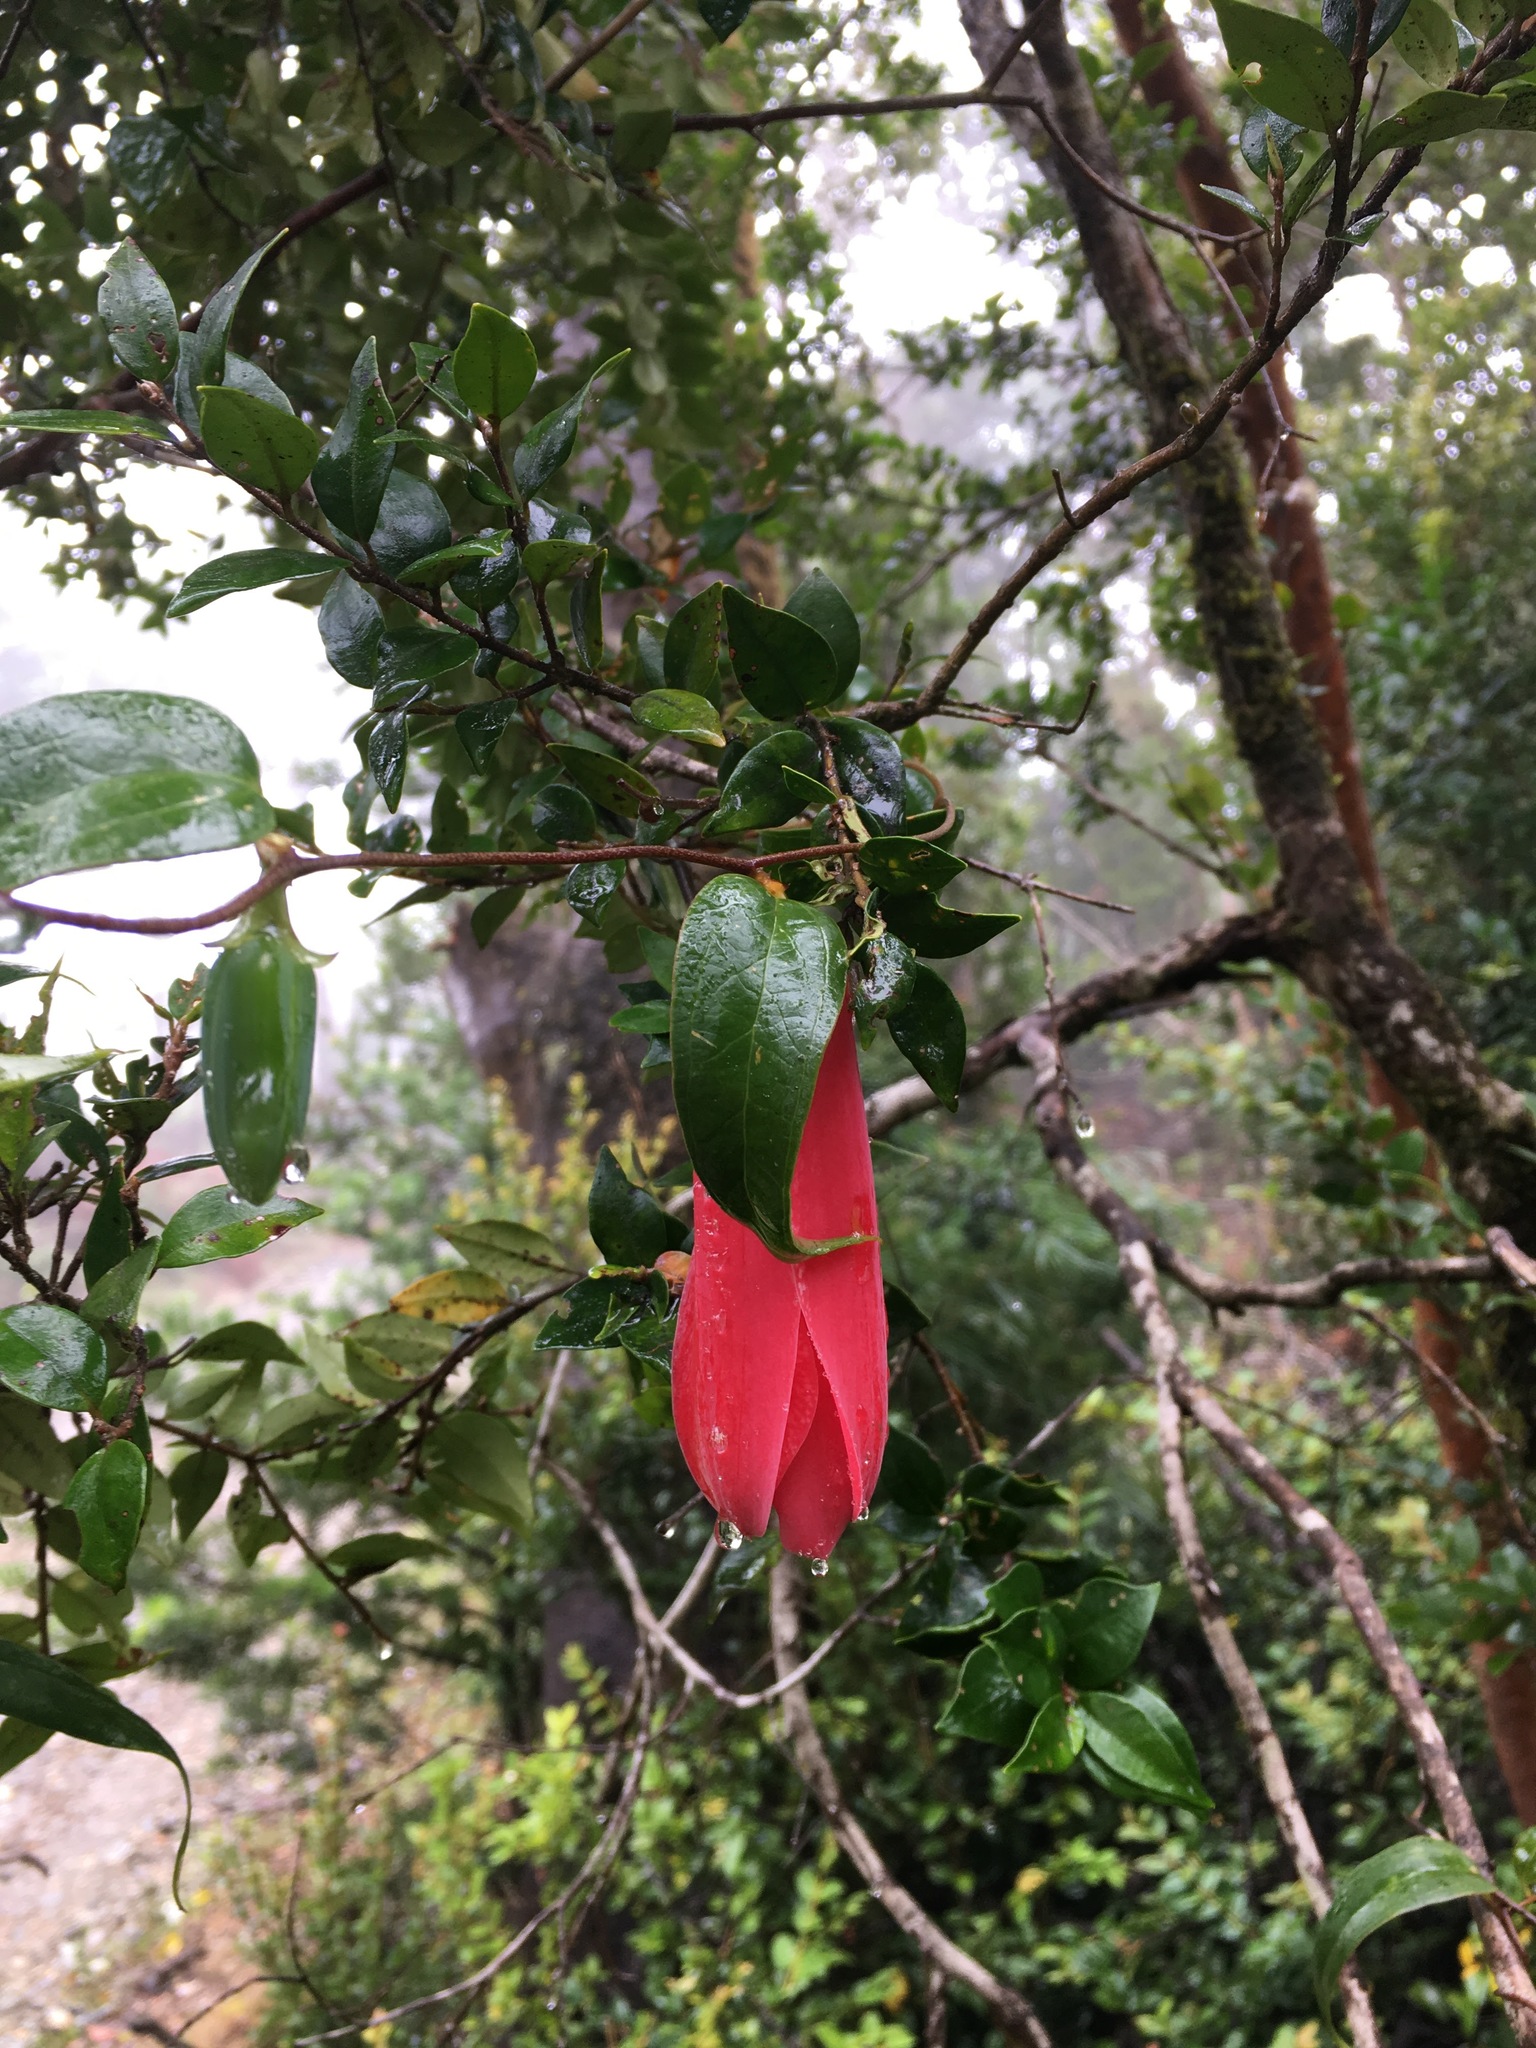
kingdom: Plantae
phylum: Tracheophyta
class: Liliopsida
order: Liliales
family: Philesiaceae
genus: Lapageria
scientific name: Lapageria rosea
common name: Chilean-bellflower
